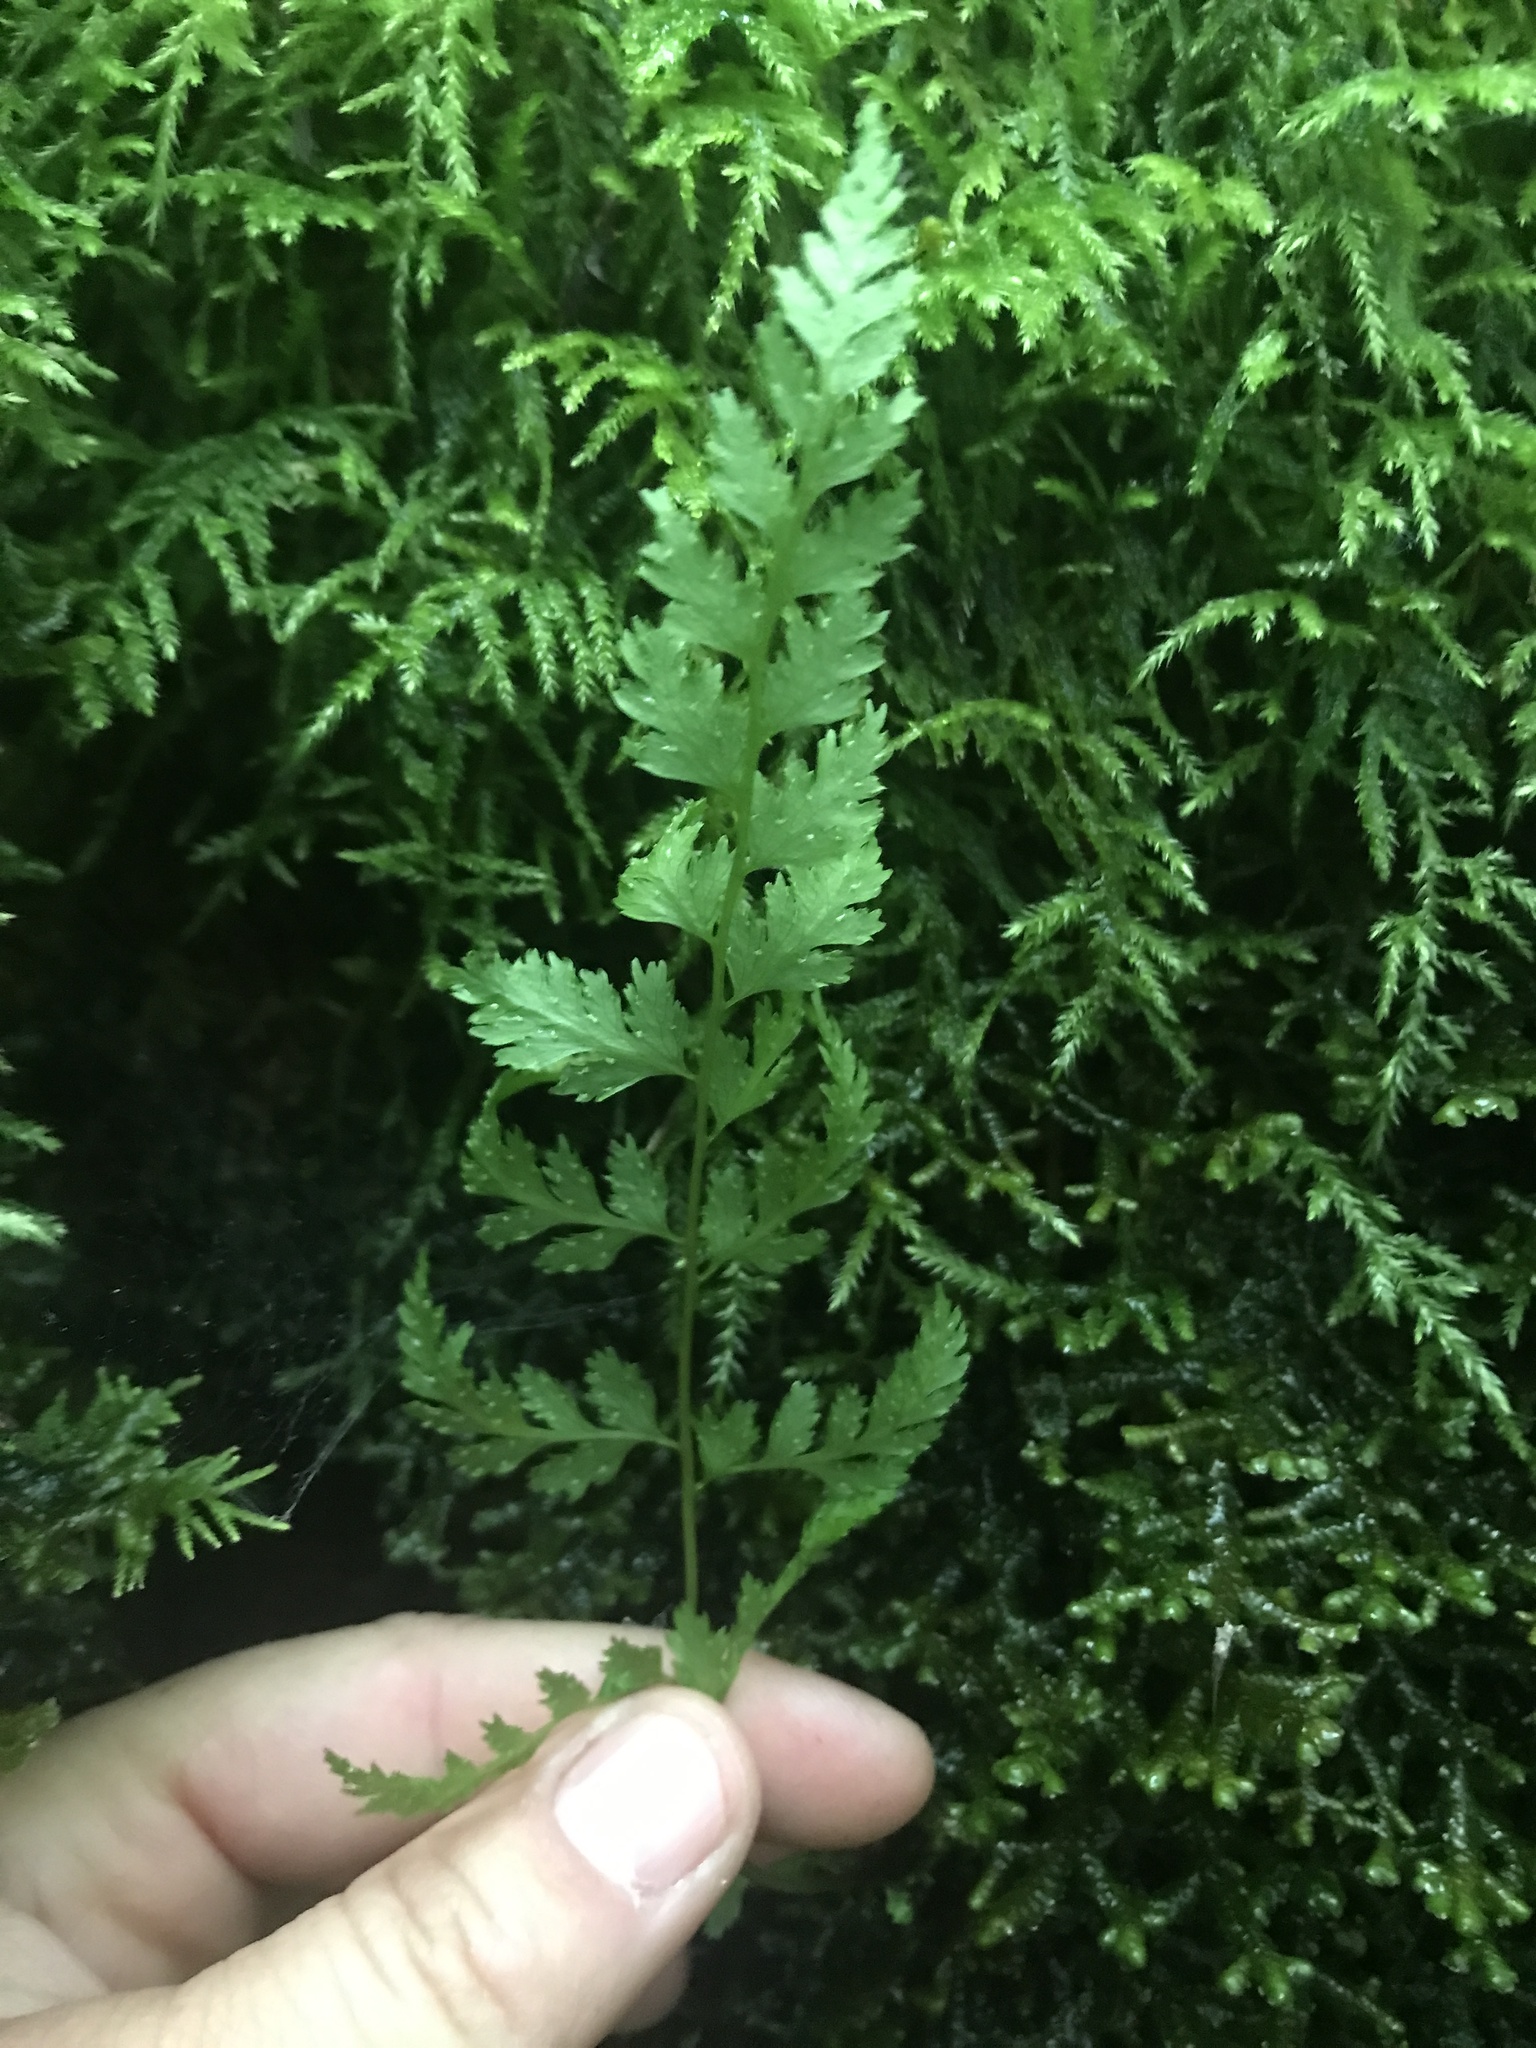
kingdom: Plantae
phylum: Tracheophyta
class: Polypodiopsida
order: Polypodiales
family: Cystopteridaceae
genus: Cystopteris
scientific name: Cystopteris fragilis
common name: Brittle bladder fern
